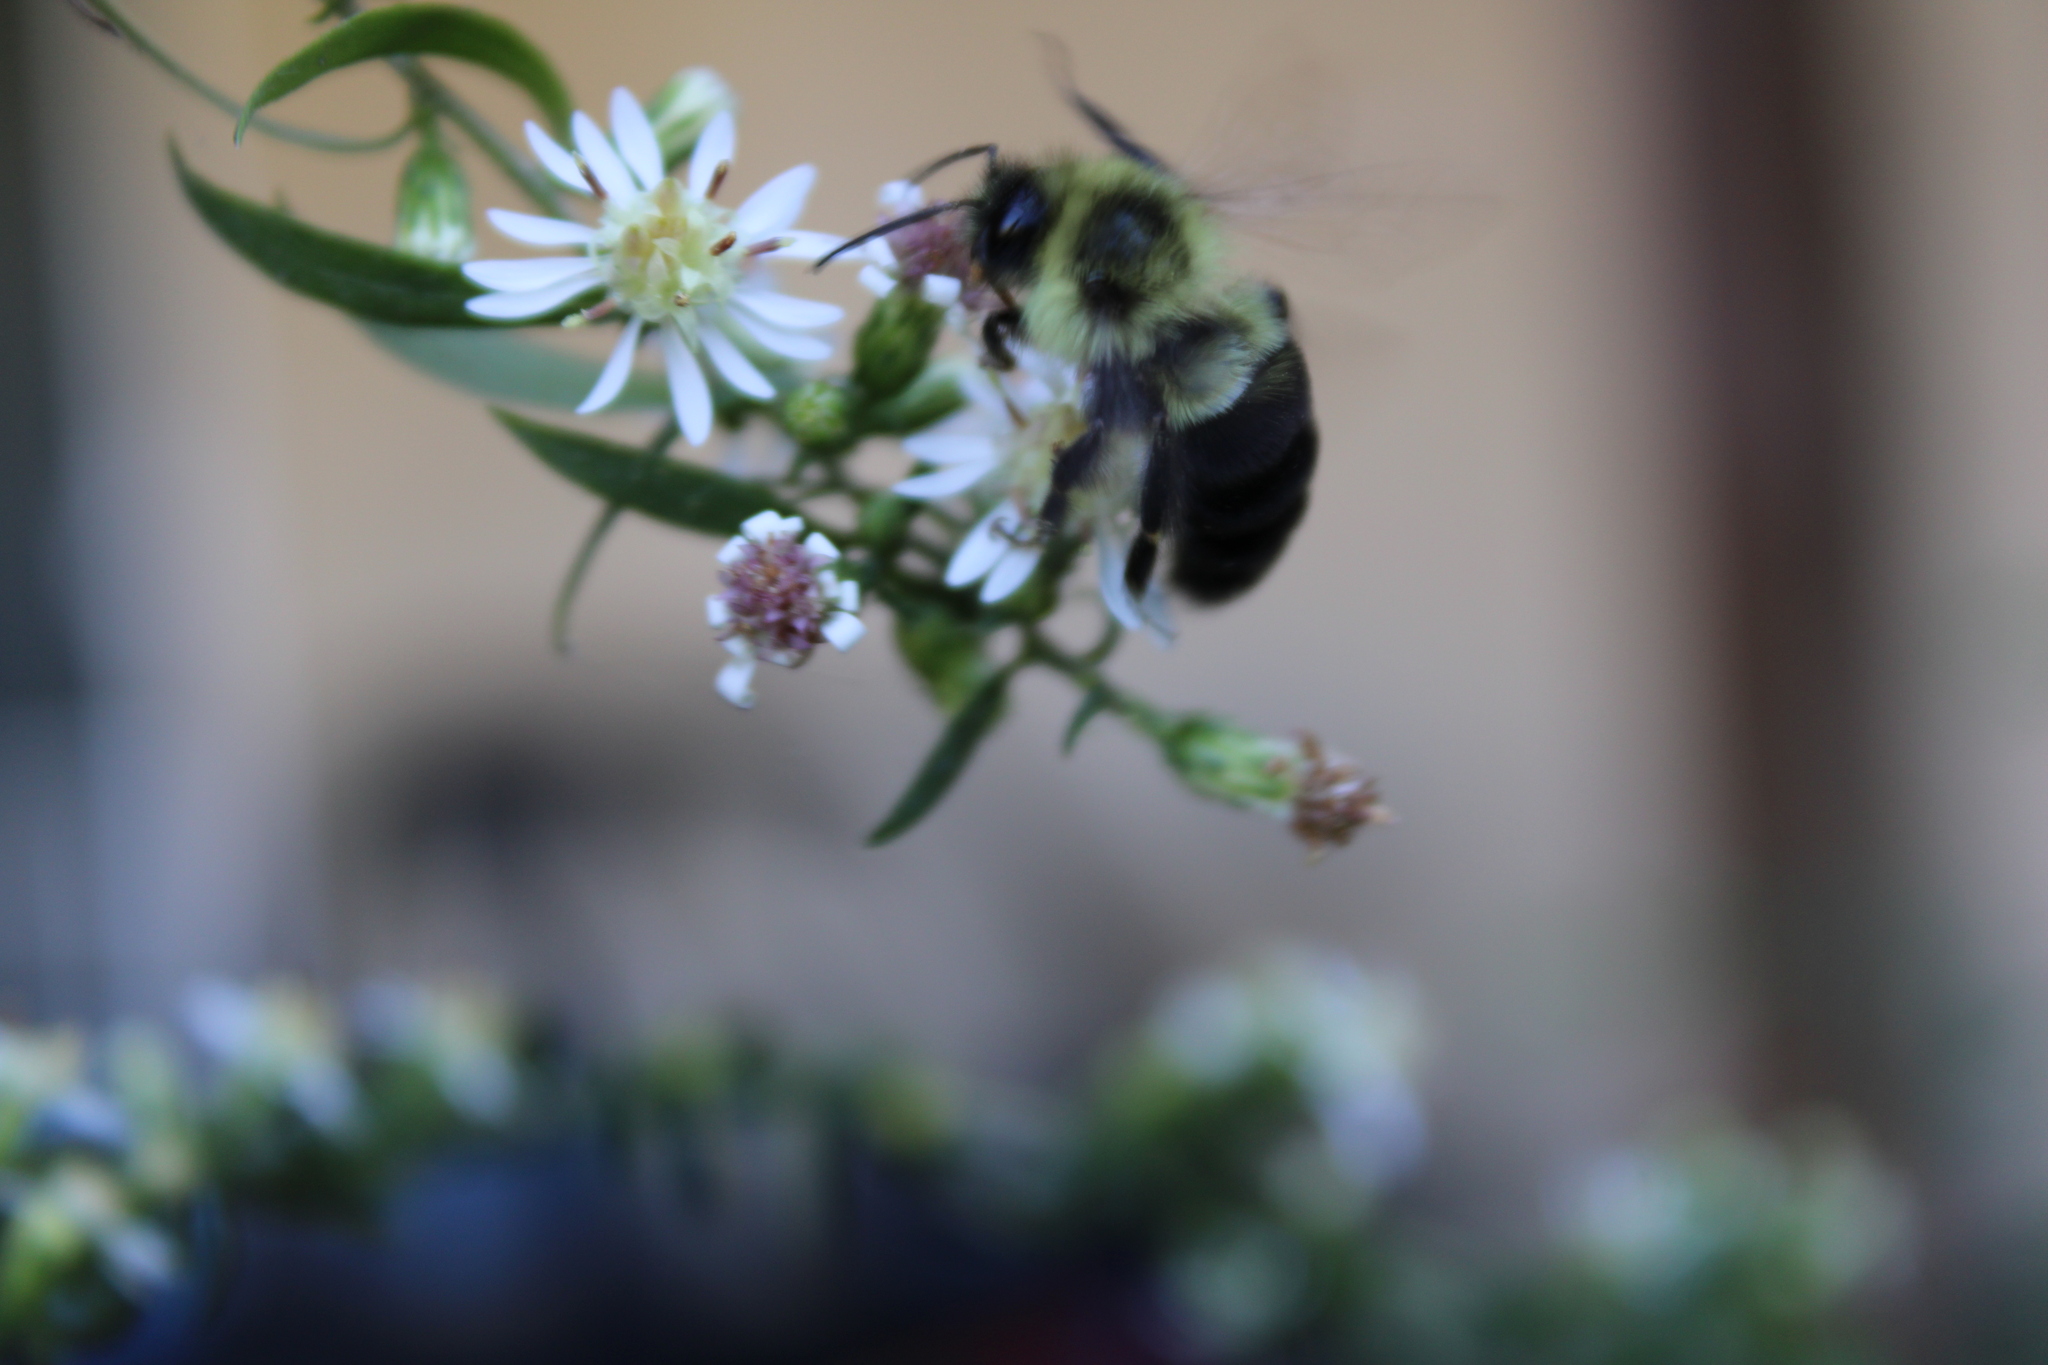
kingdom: Animalia
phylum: Arthropoda
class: Insecta
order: Hymenoptera
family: Apidae
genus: Bombus
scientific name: Bombus impatiens
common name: Common eastern bumble bee
